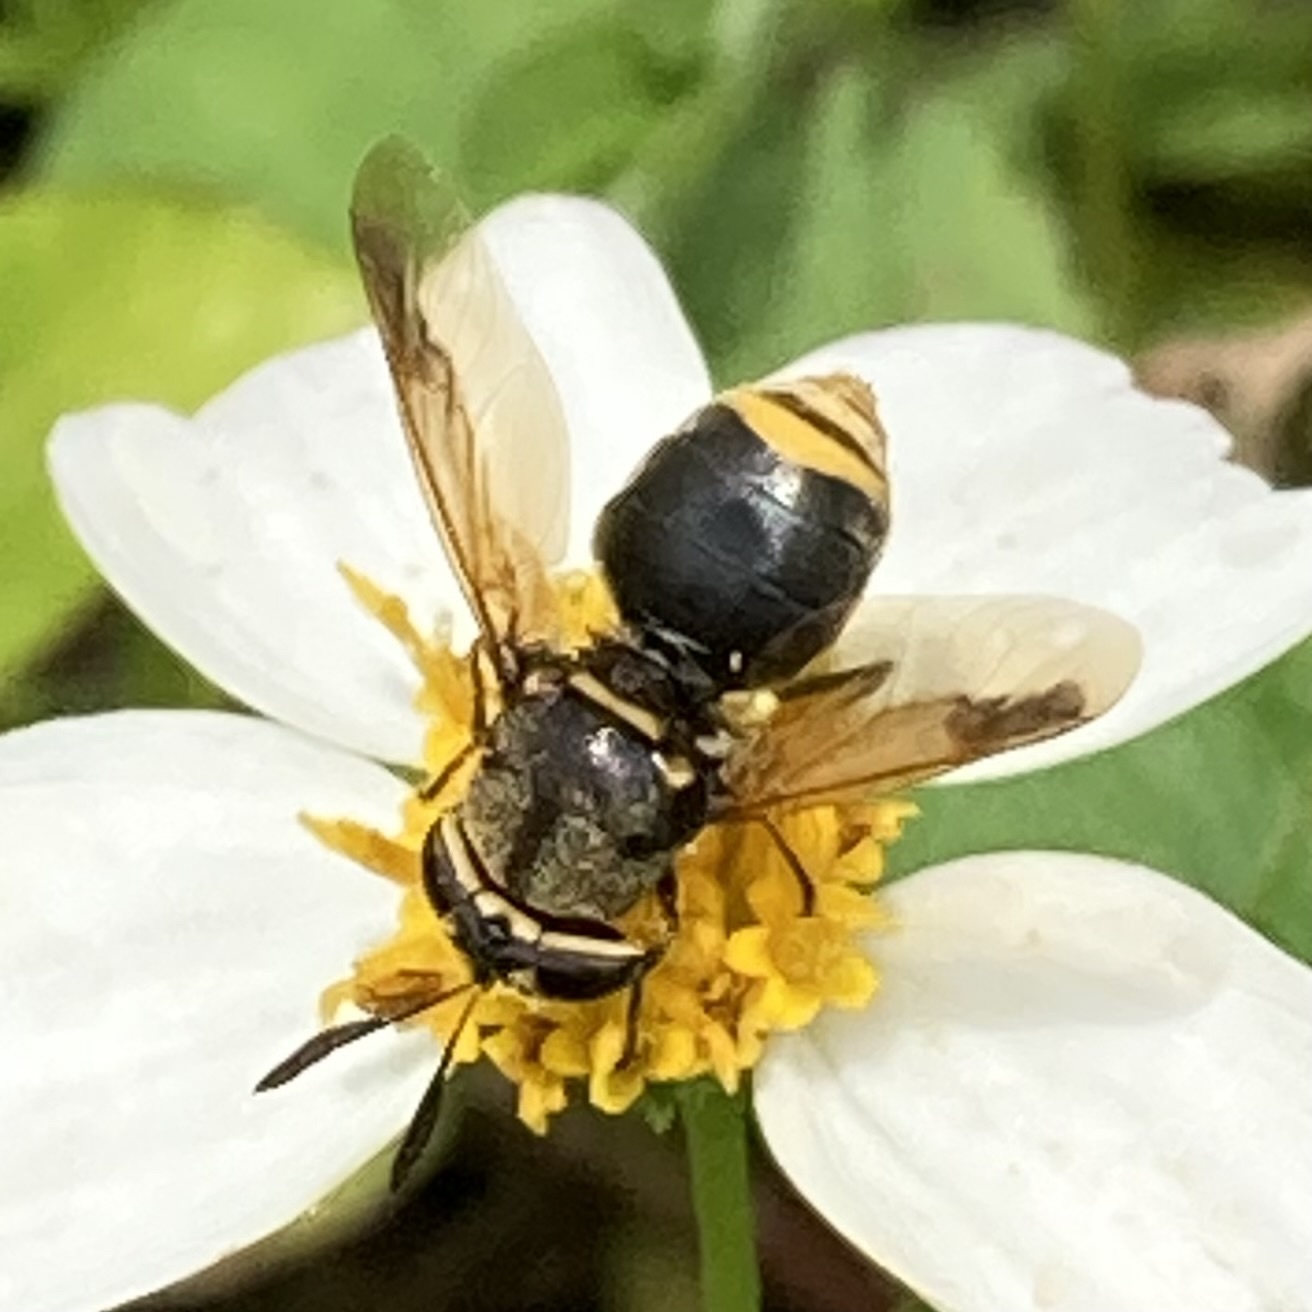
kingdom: Animalia
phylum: Arthropoda
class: Insecta
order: Diptera
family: Stratiomyidae
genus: Hoplitimyia
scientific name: Hoplitimyia mutabilis
